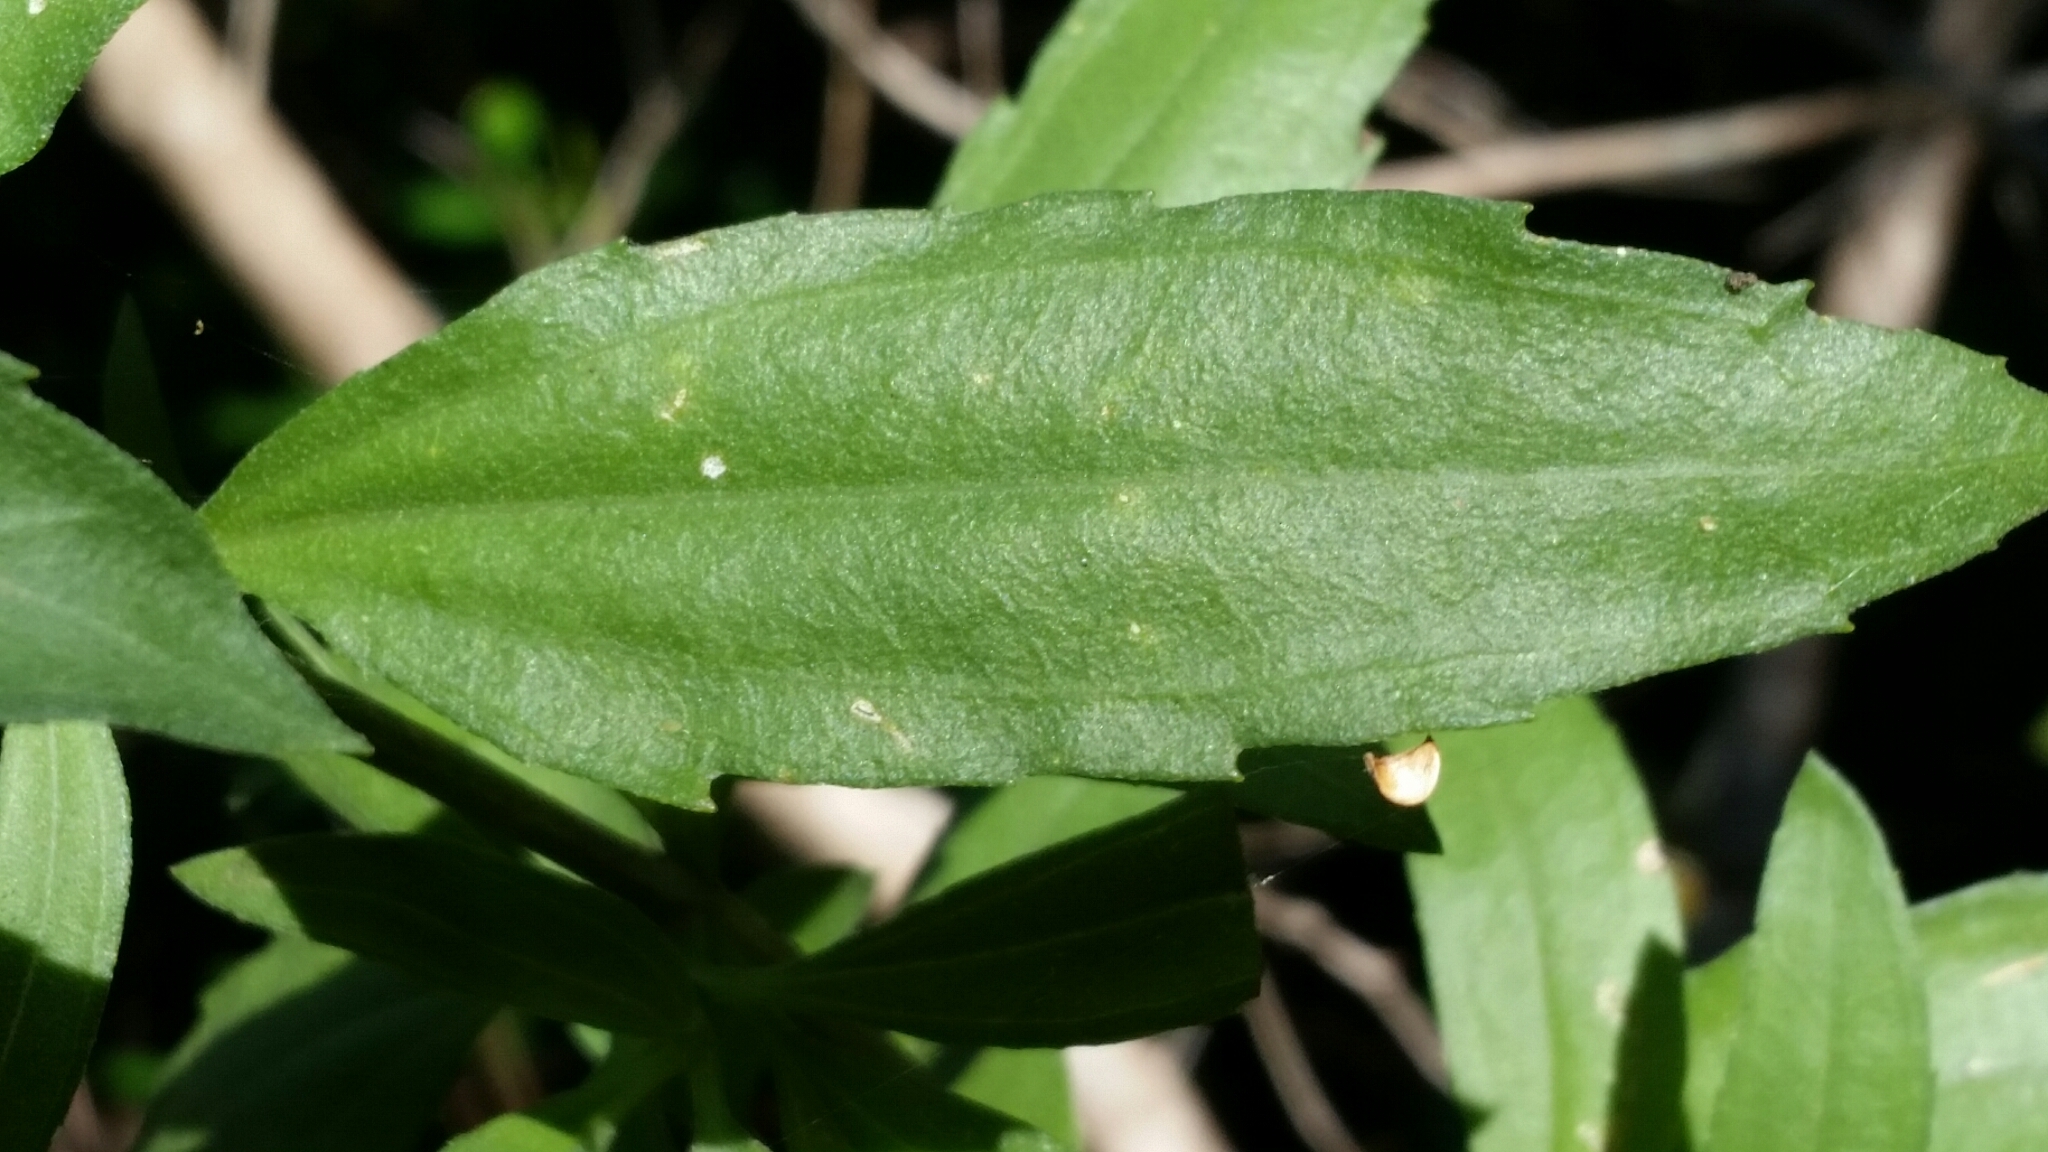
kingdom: Plantae
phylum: Tracheophyta
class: Magnoliopsida
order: Asterales
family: Asteraceae
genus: Iva
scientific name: Iva frutescens
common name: Big-leaved marsh-elder
